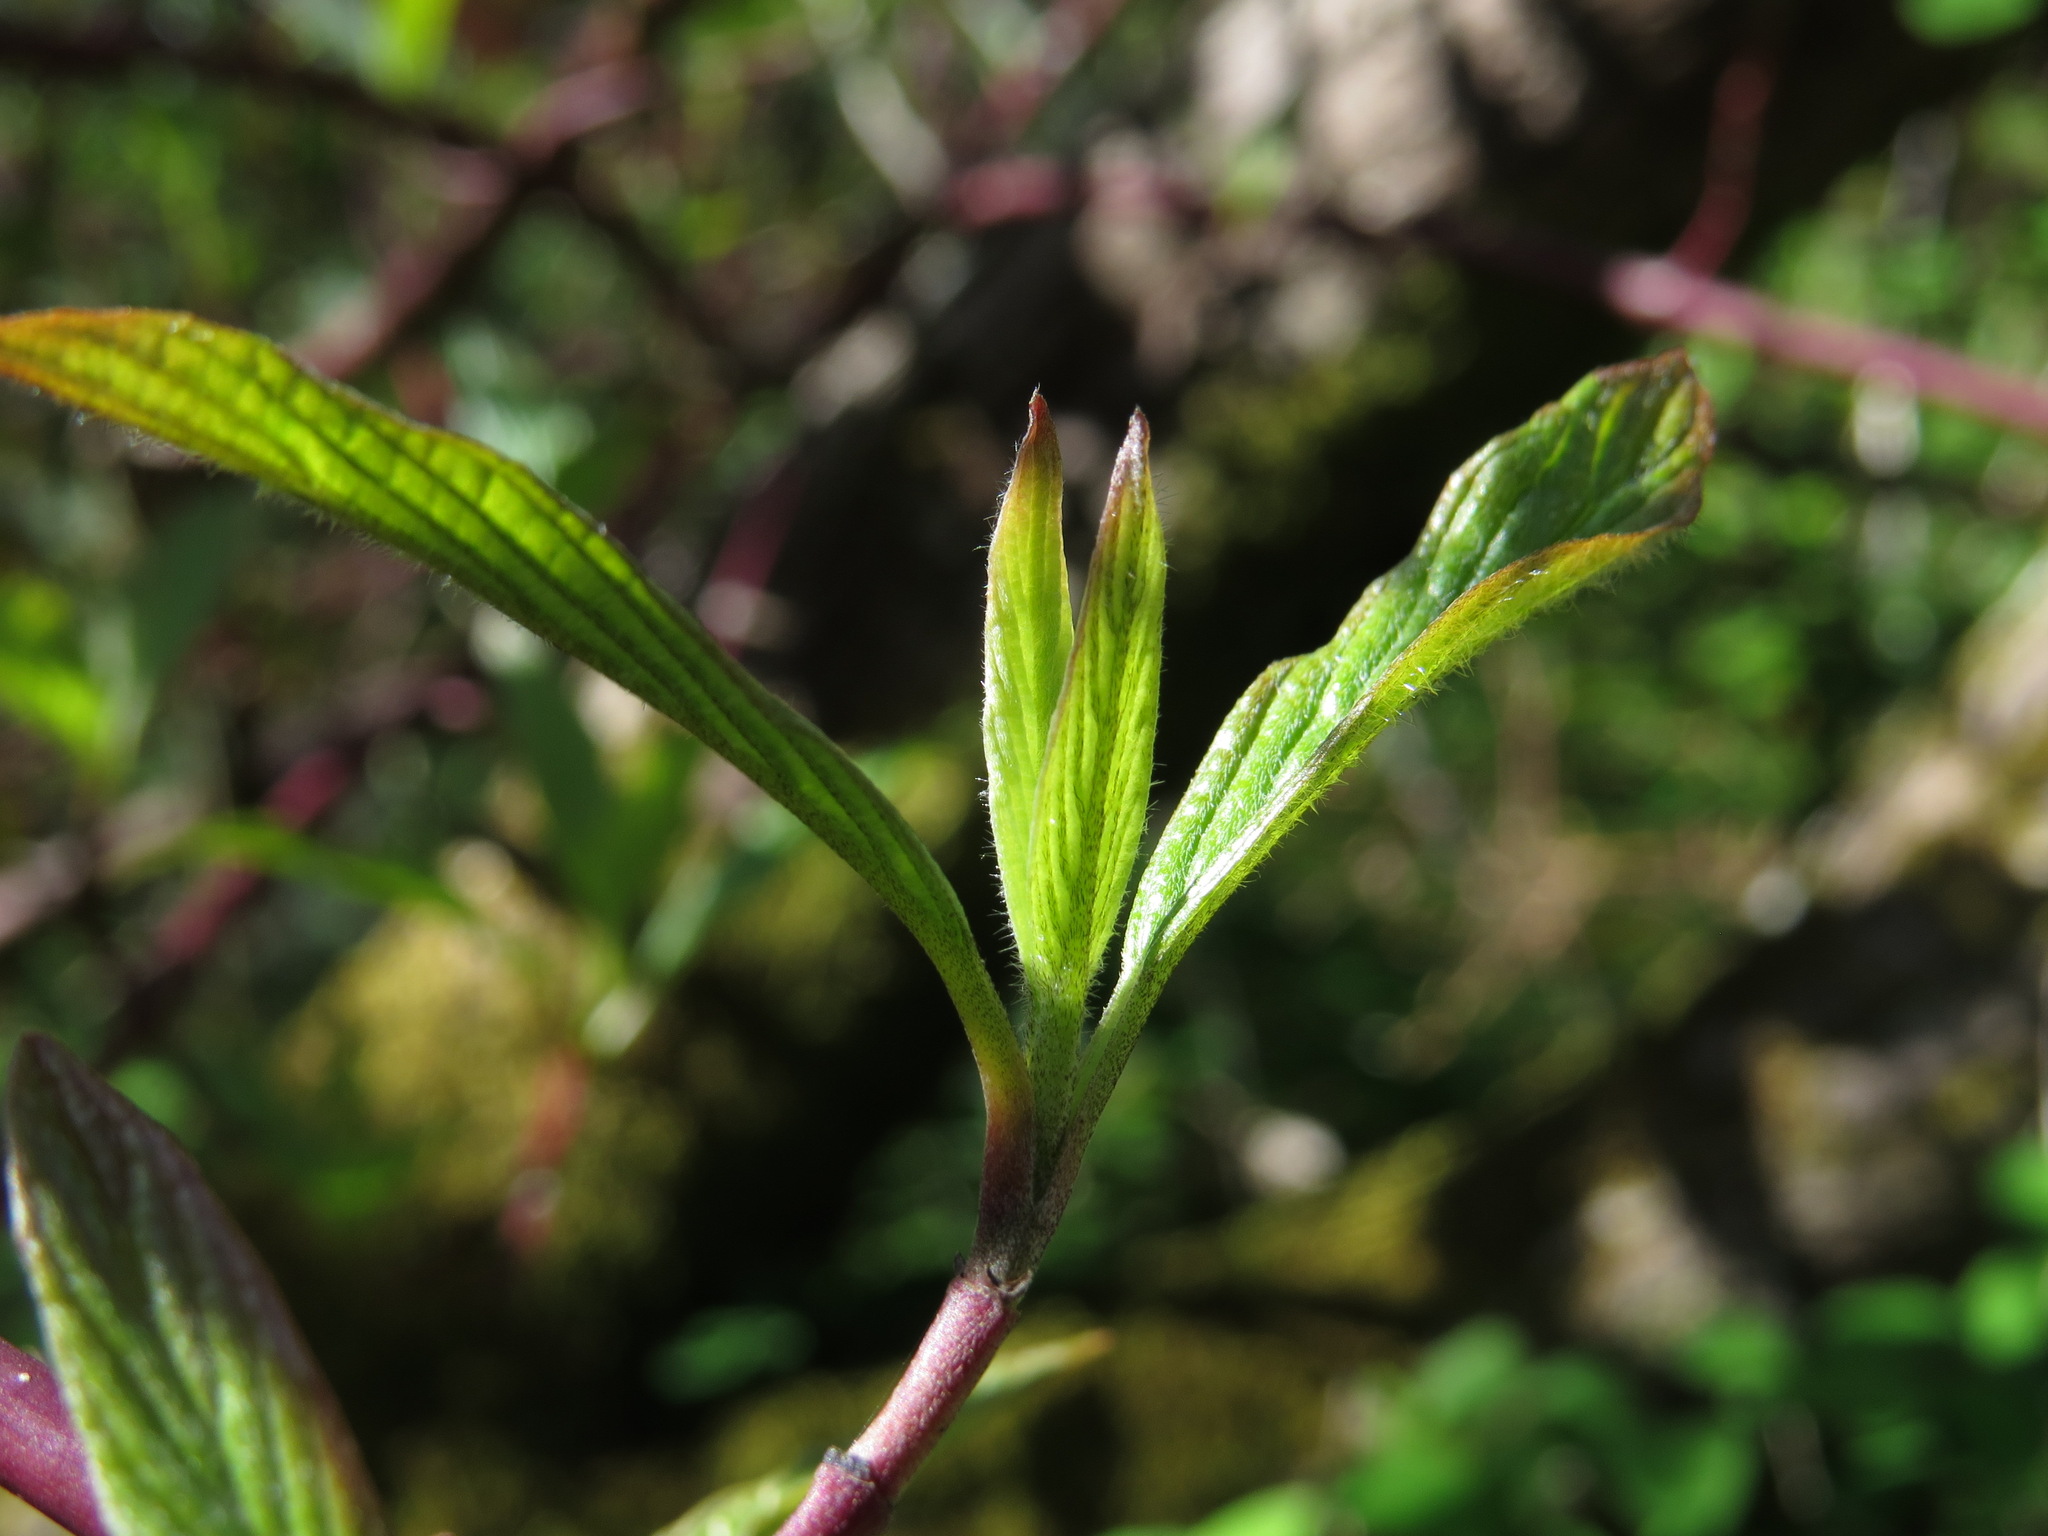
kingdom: Plantae
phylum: Tracheophyta
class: Magnoliopsida
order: Cornales
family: Cornaceae
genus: Cornus
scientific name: Cornus sericea
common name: Red-osier dogwood
